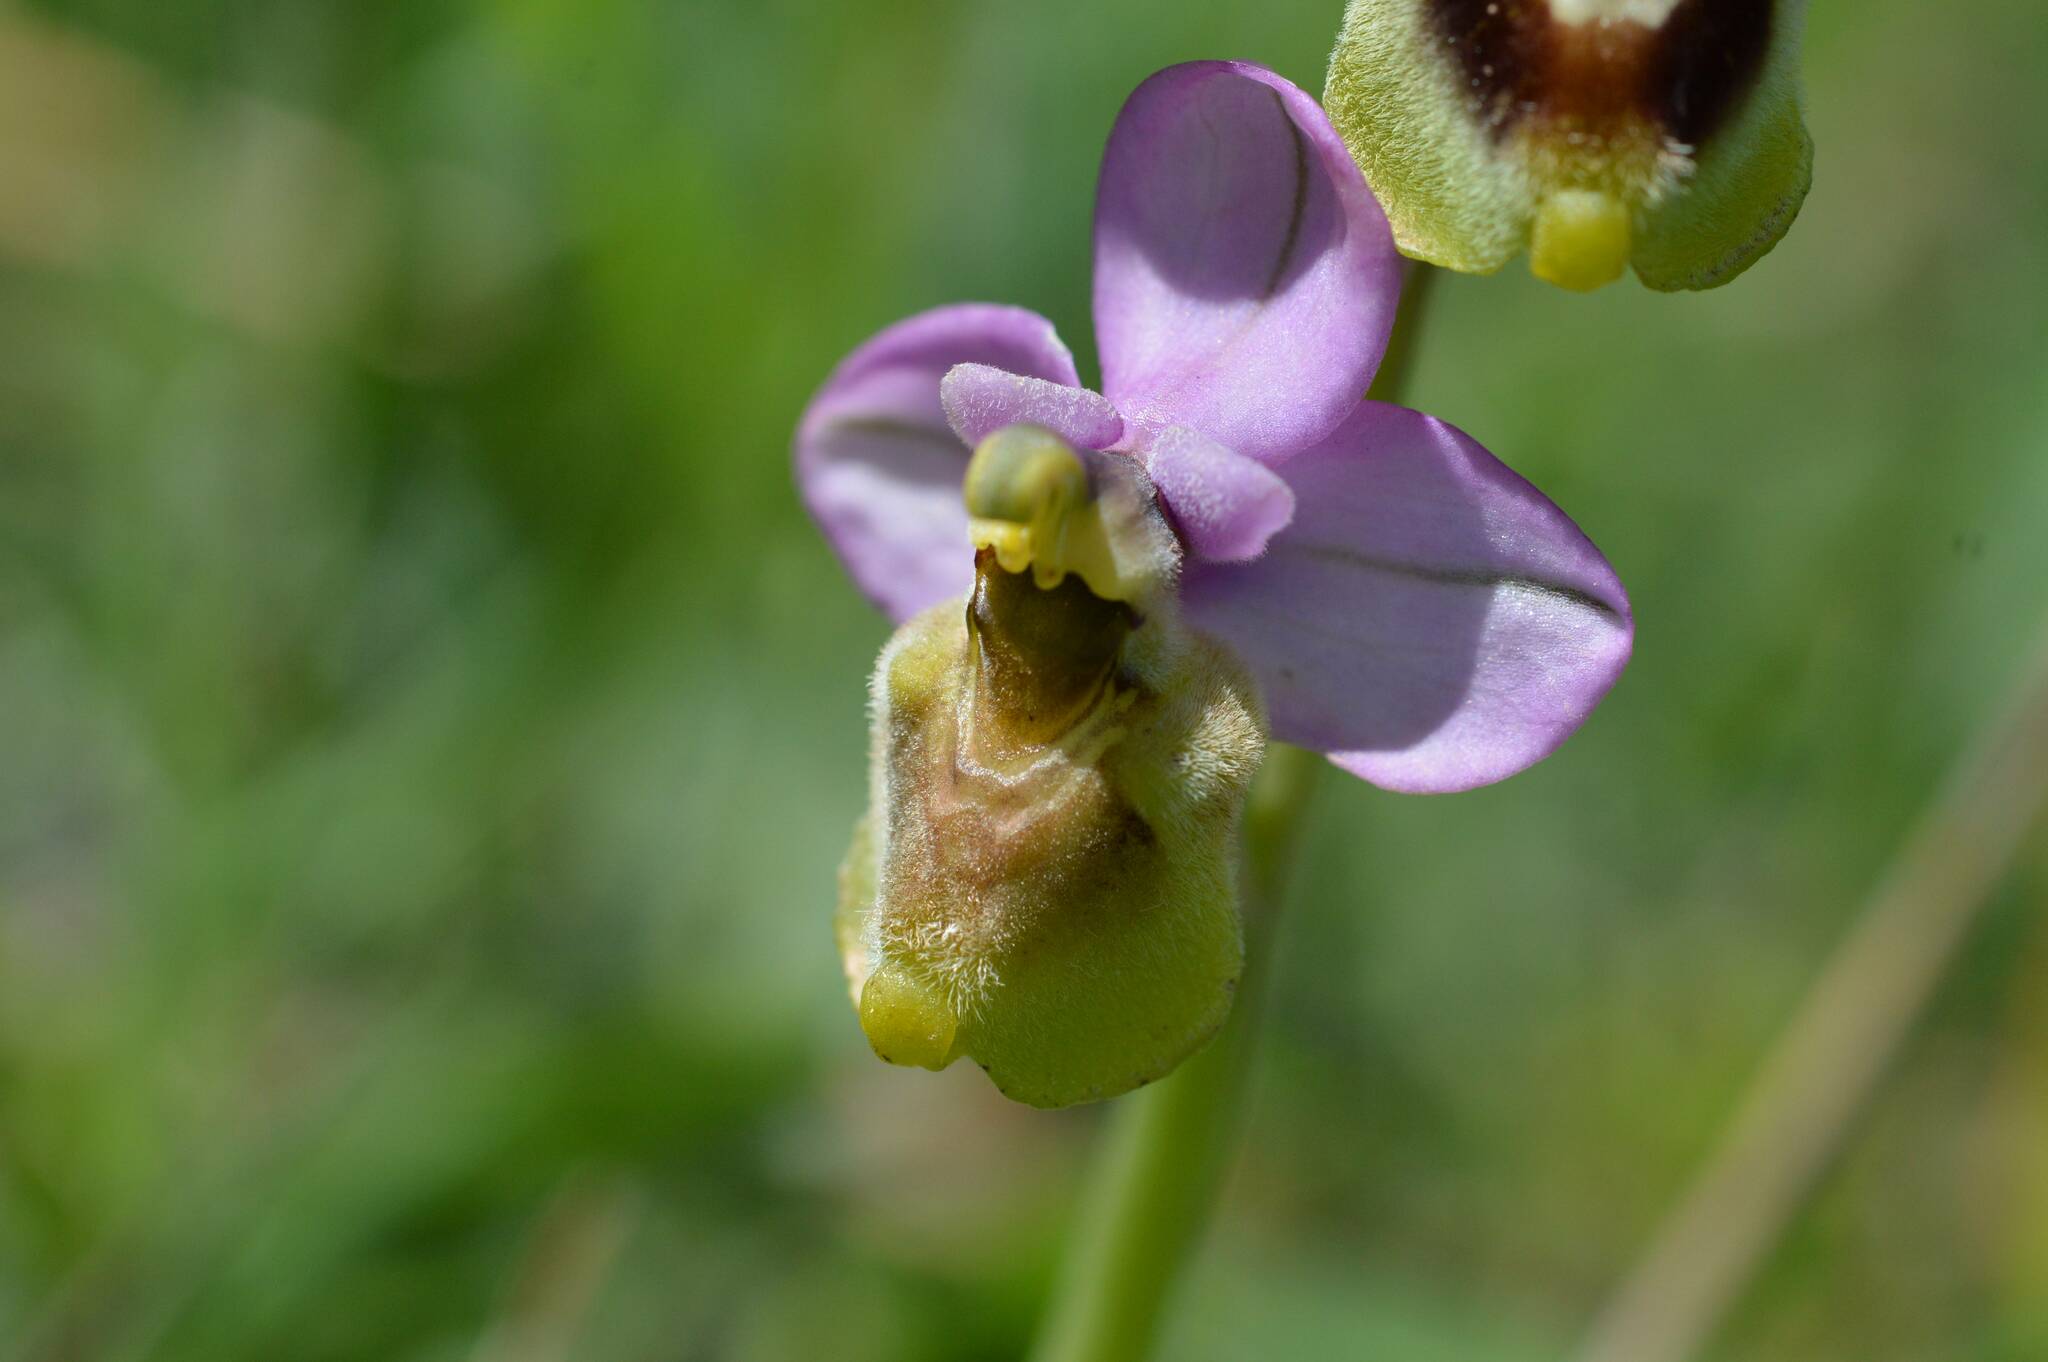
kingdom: Plantae
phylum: Tracheophyta
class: Liliopsida
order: Asparagales
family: Orchidaceae
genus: Ophrys
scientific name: Ophrys tenthredinifera
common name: Sawfly orchid
